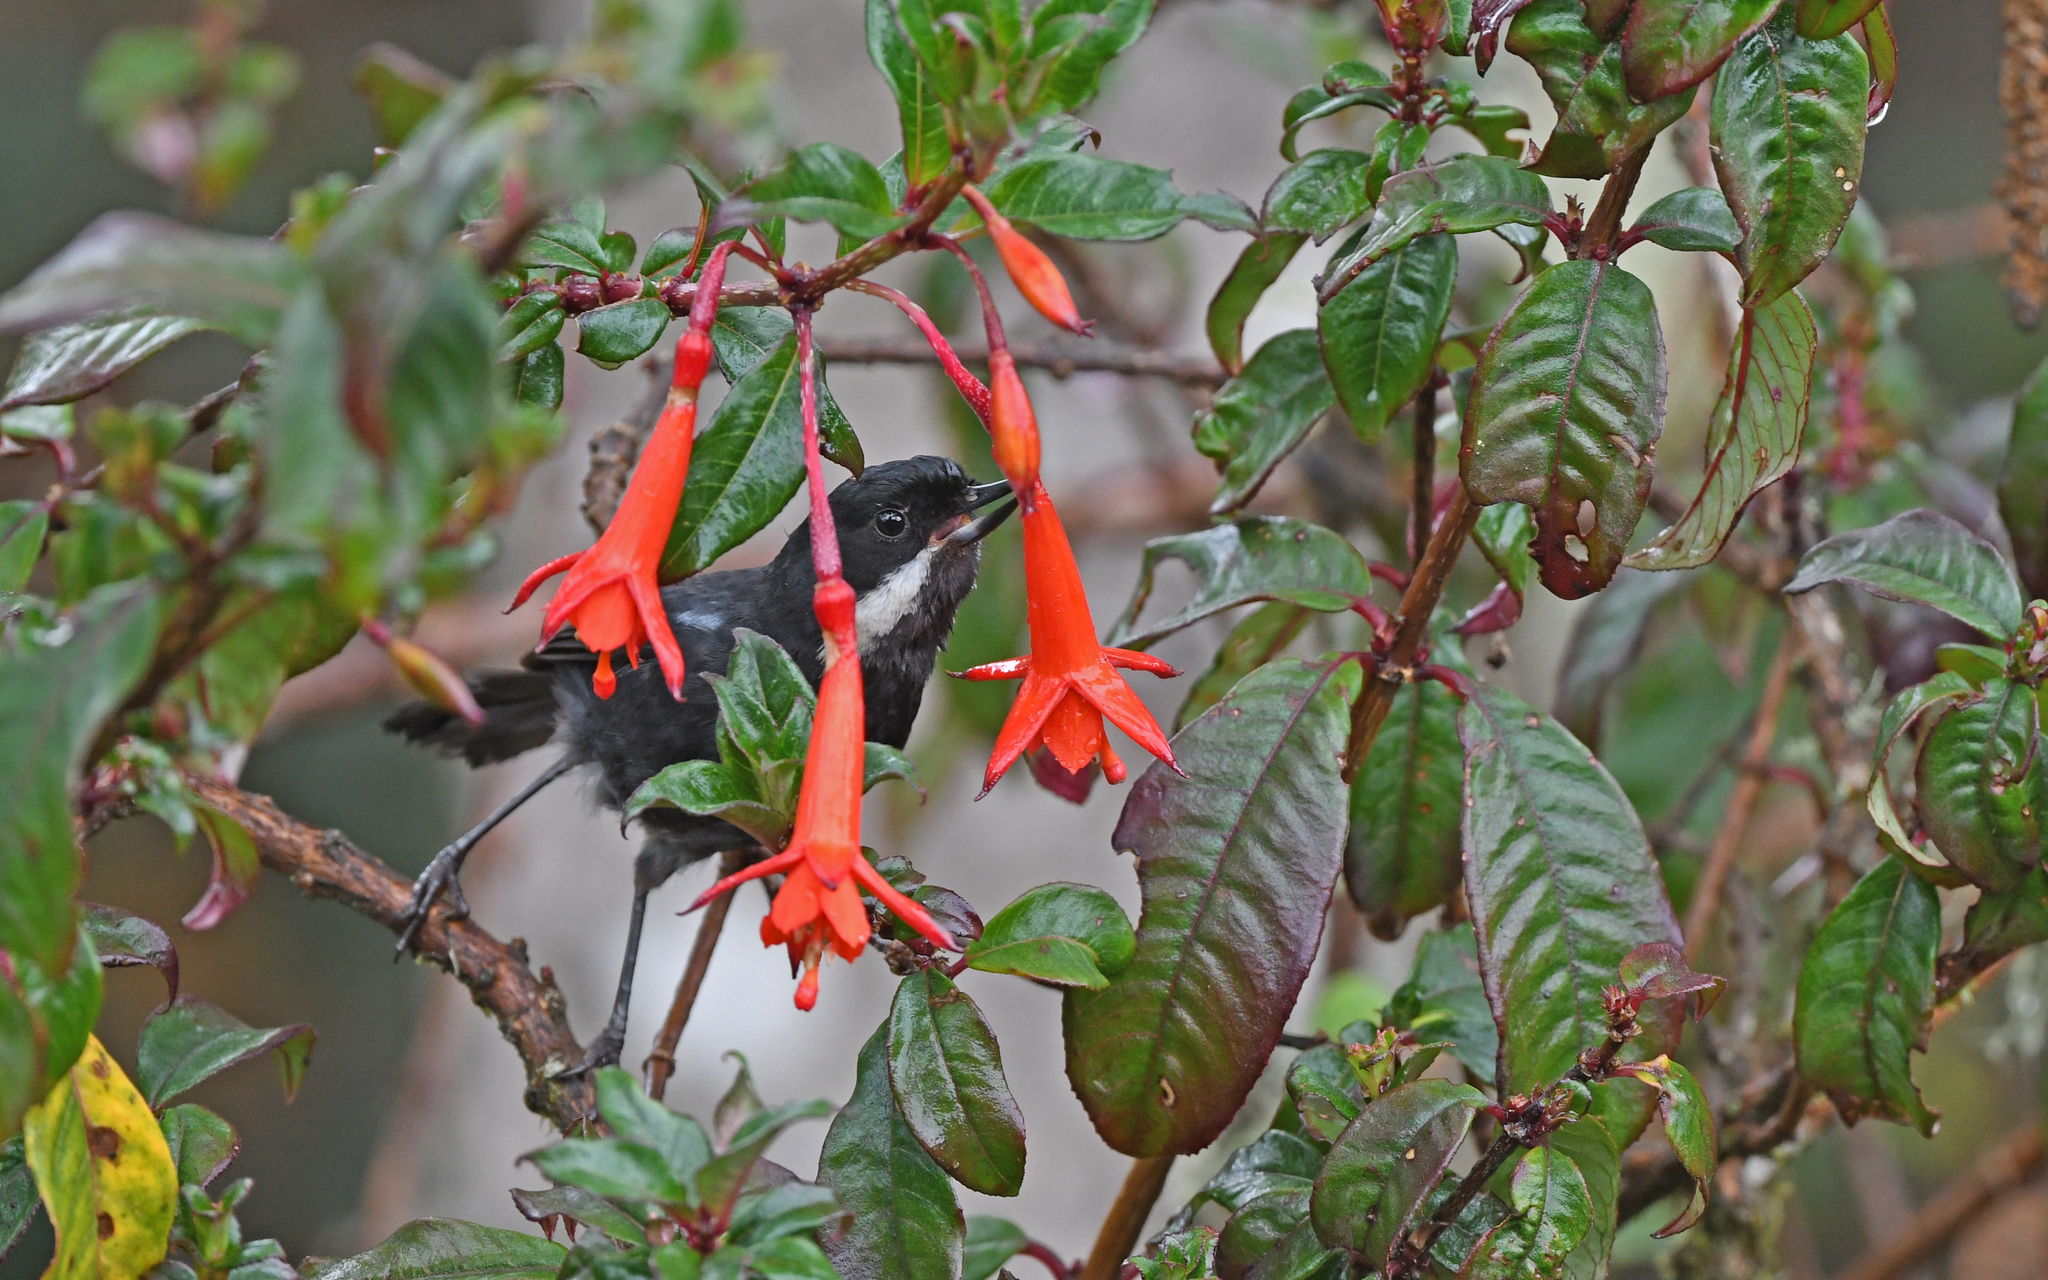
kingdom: Animalia
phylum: Chordata
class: Aves
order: Passeriformes
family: Thraupidae
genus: Diglossa
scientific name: Diglossa mystacalis
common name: Moustached flowerpiercer
